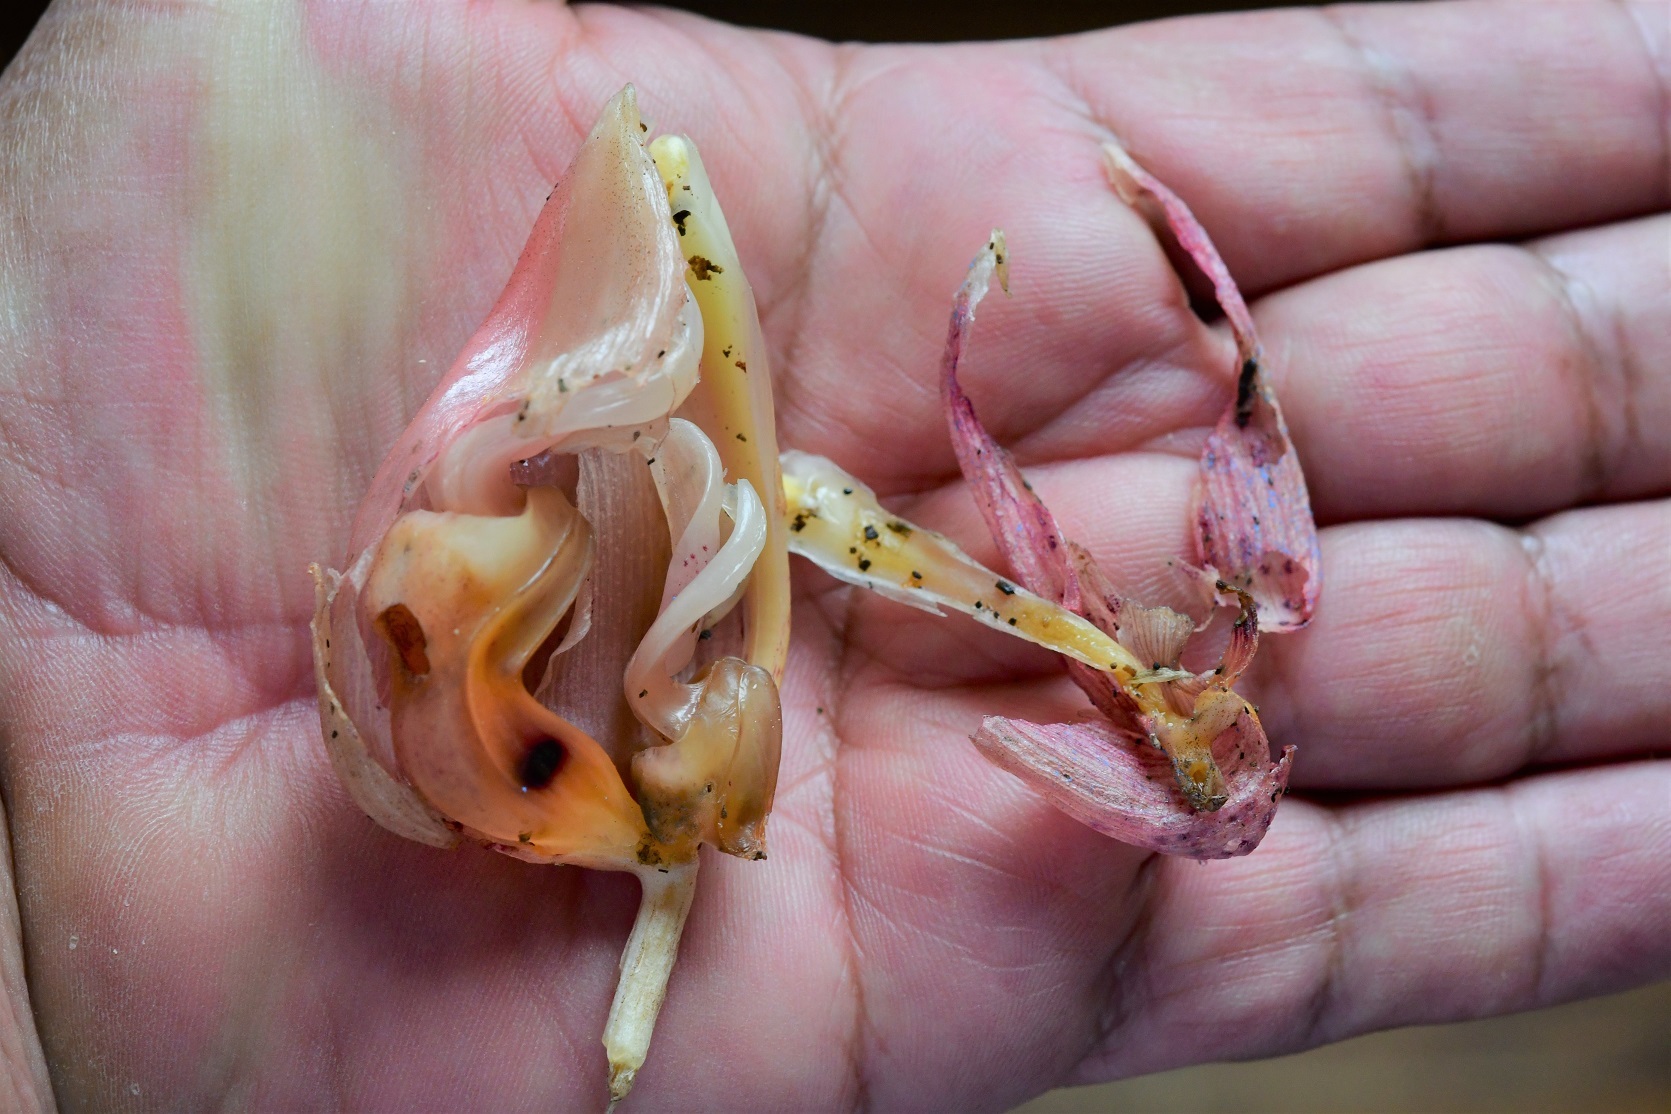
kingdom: Plantae
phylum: Tracheophyta
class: Liliopsida
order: Asparagales
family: Orchidaceae
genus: Stanhopea
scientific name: Stanhopea oculata
